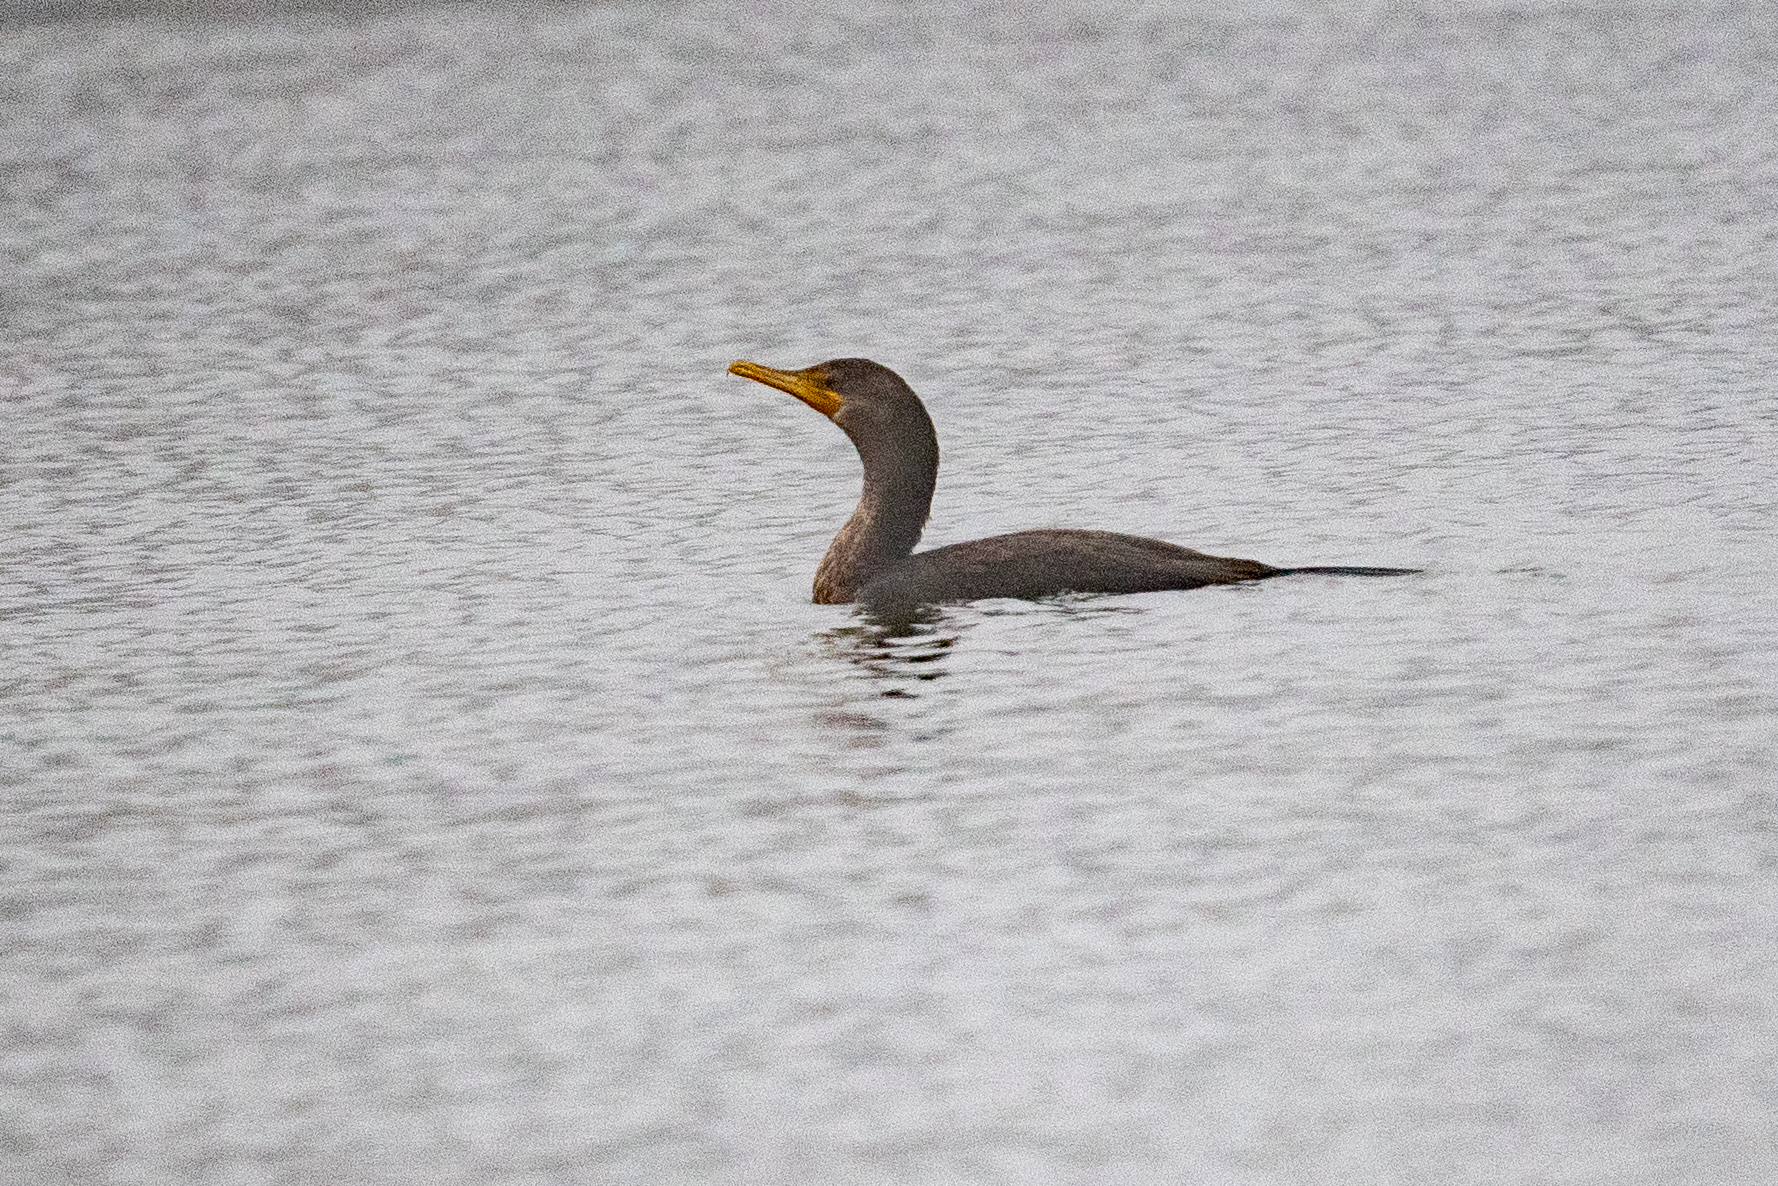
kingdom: Animalia
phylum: Chordata
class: Aves
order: Suliformes
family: Phalacrocoracidae
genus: Phalacrocorax
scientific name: Phalacrocorax auritus
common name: Double-crested cormorant
